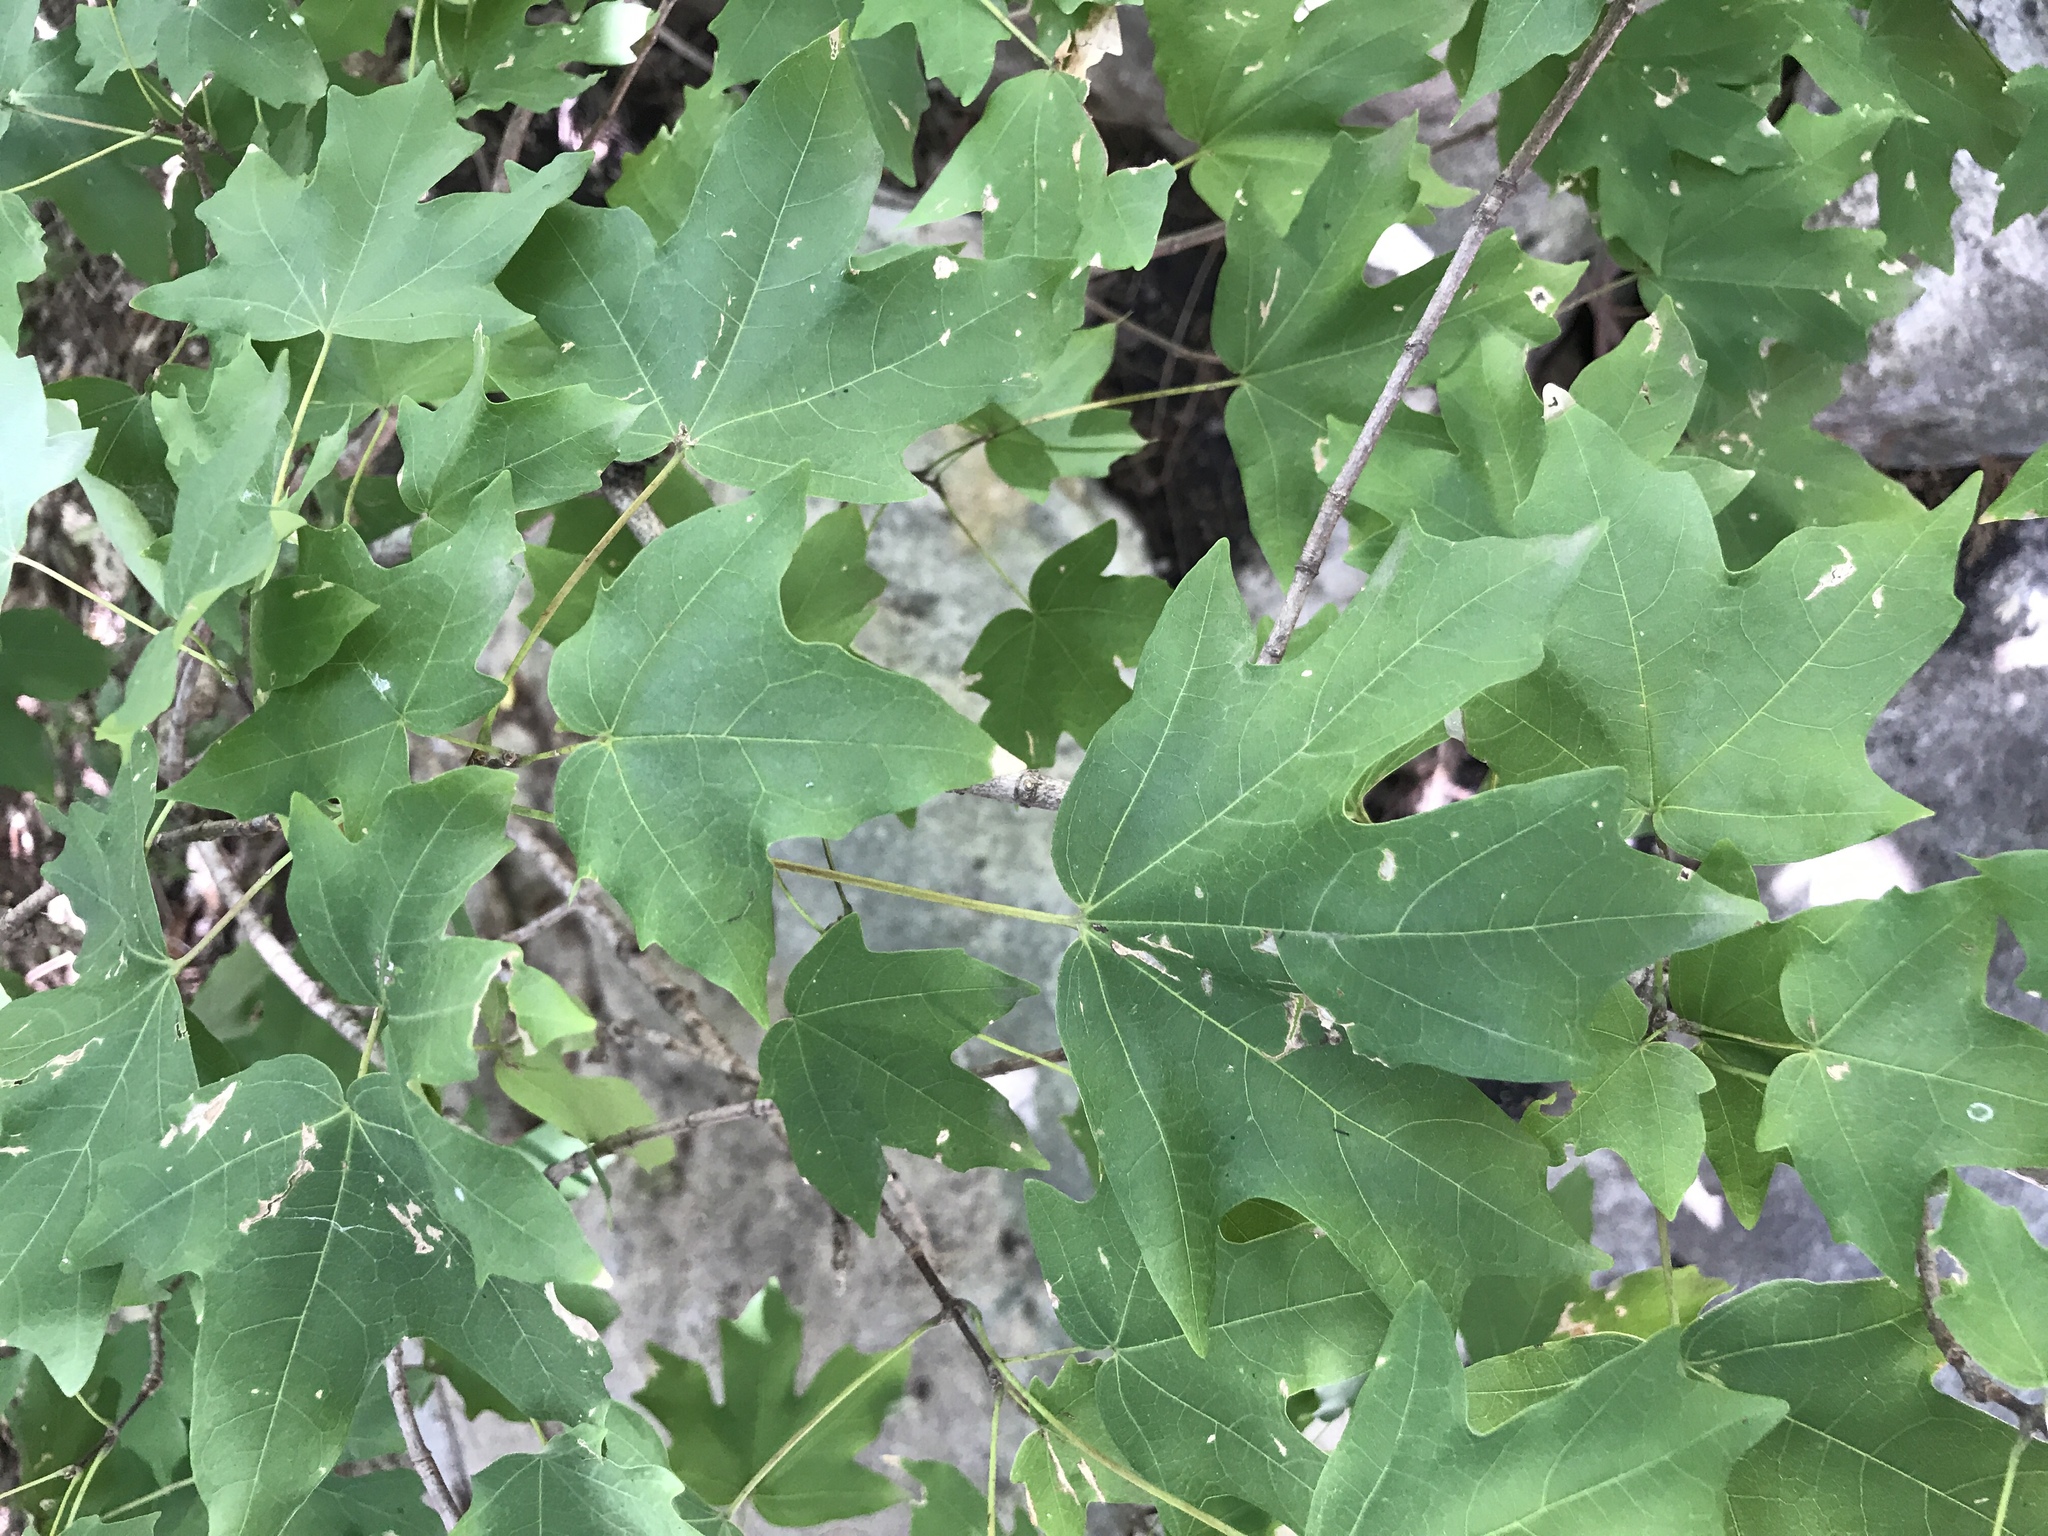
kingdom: Plantae
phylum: Tracheophyta
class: Magnoliopsida
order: Sapindales
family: Sapindaceae
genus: Acer
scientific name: Acer grandidentatum
